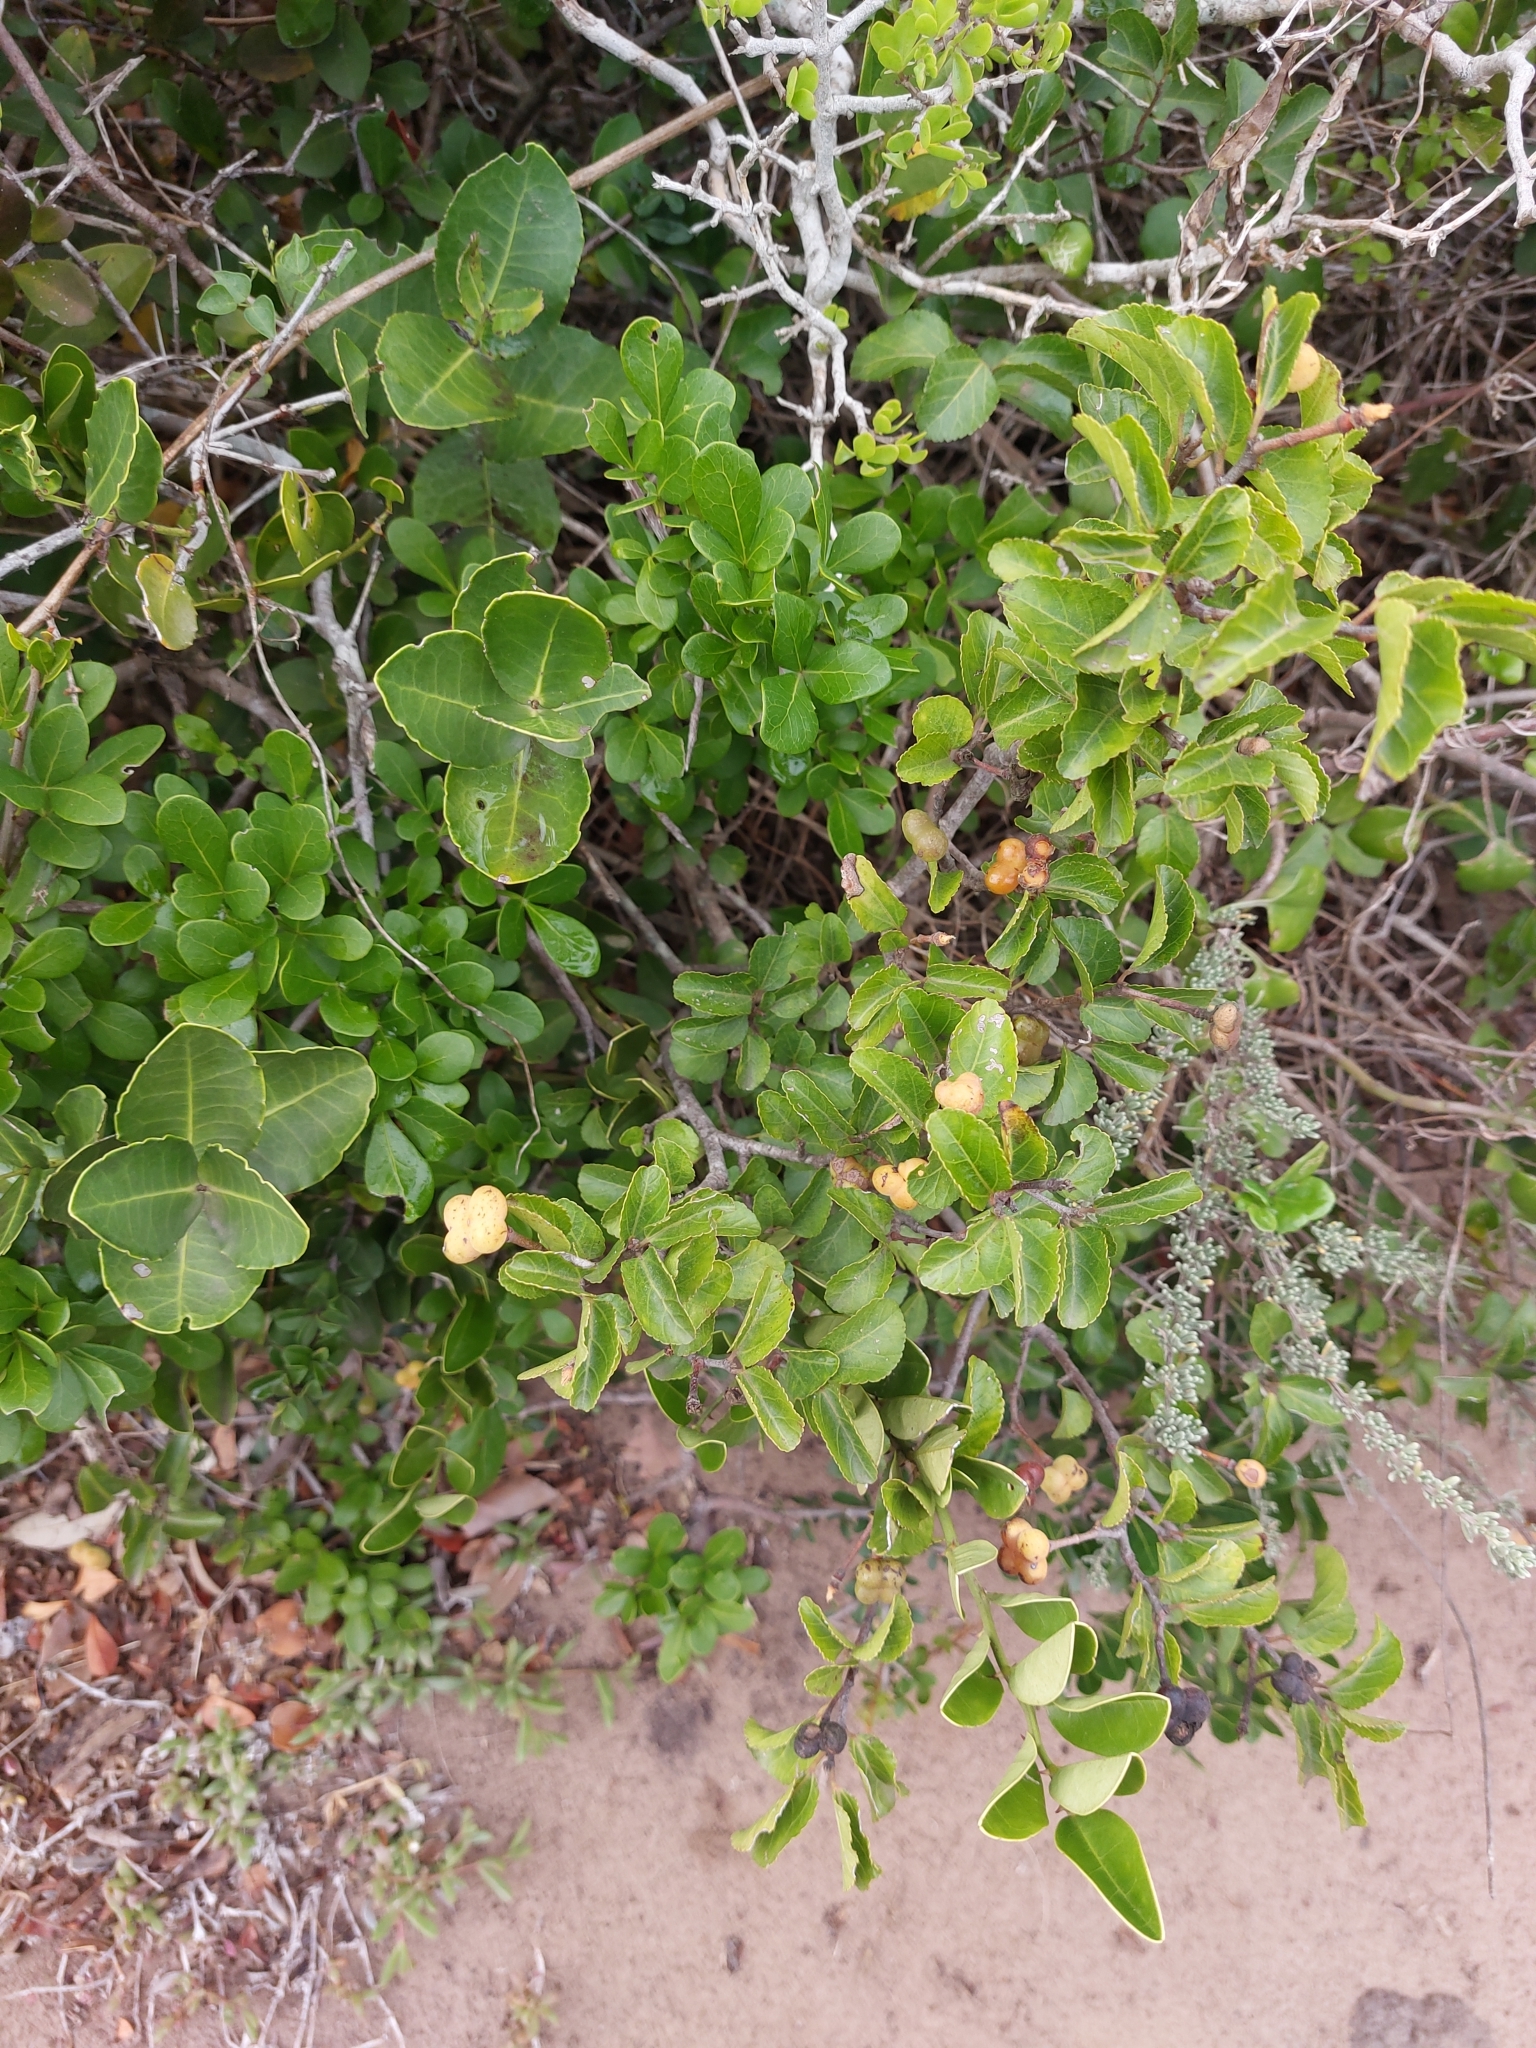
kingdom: Plantae
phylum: Tracheophyta
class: Magnoliopsida
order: Malvales
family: Malvaceae
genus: Grewia
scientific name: Grewia occidentalis
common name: Crossberry
